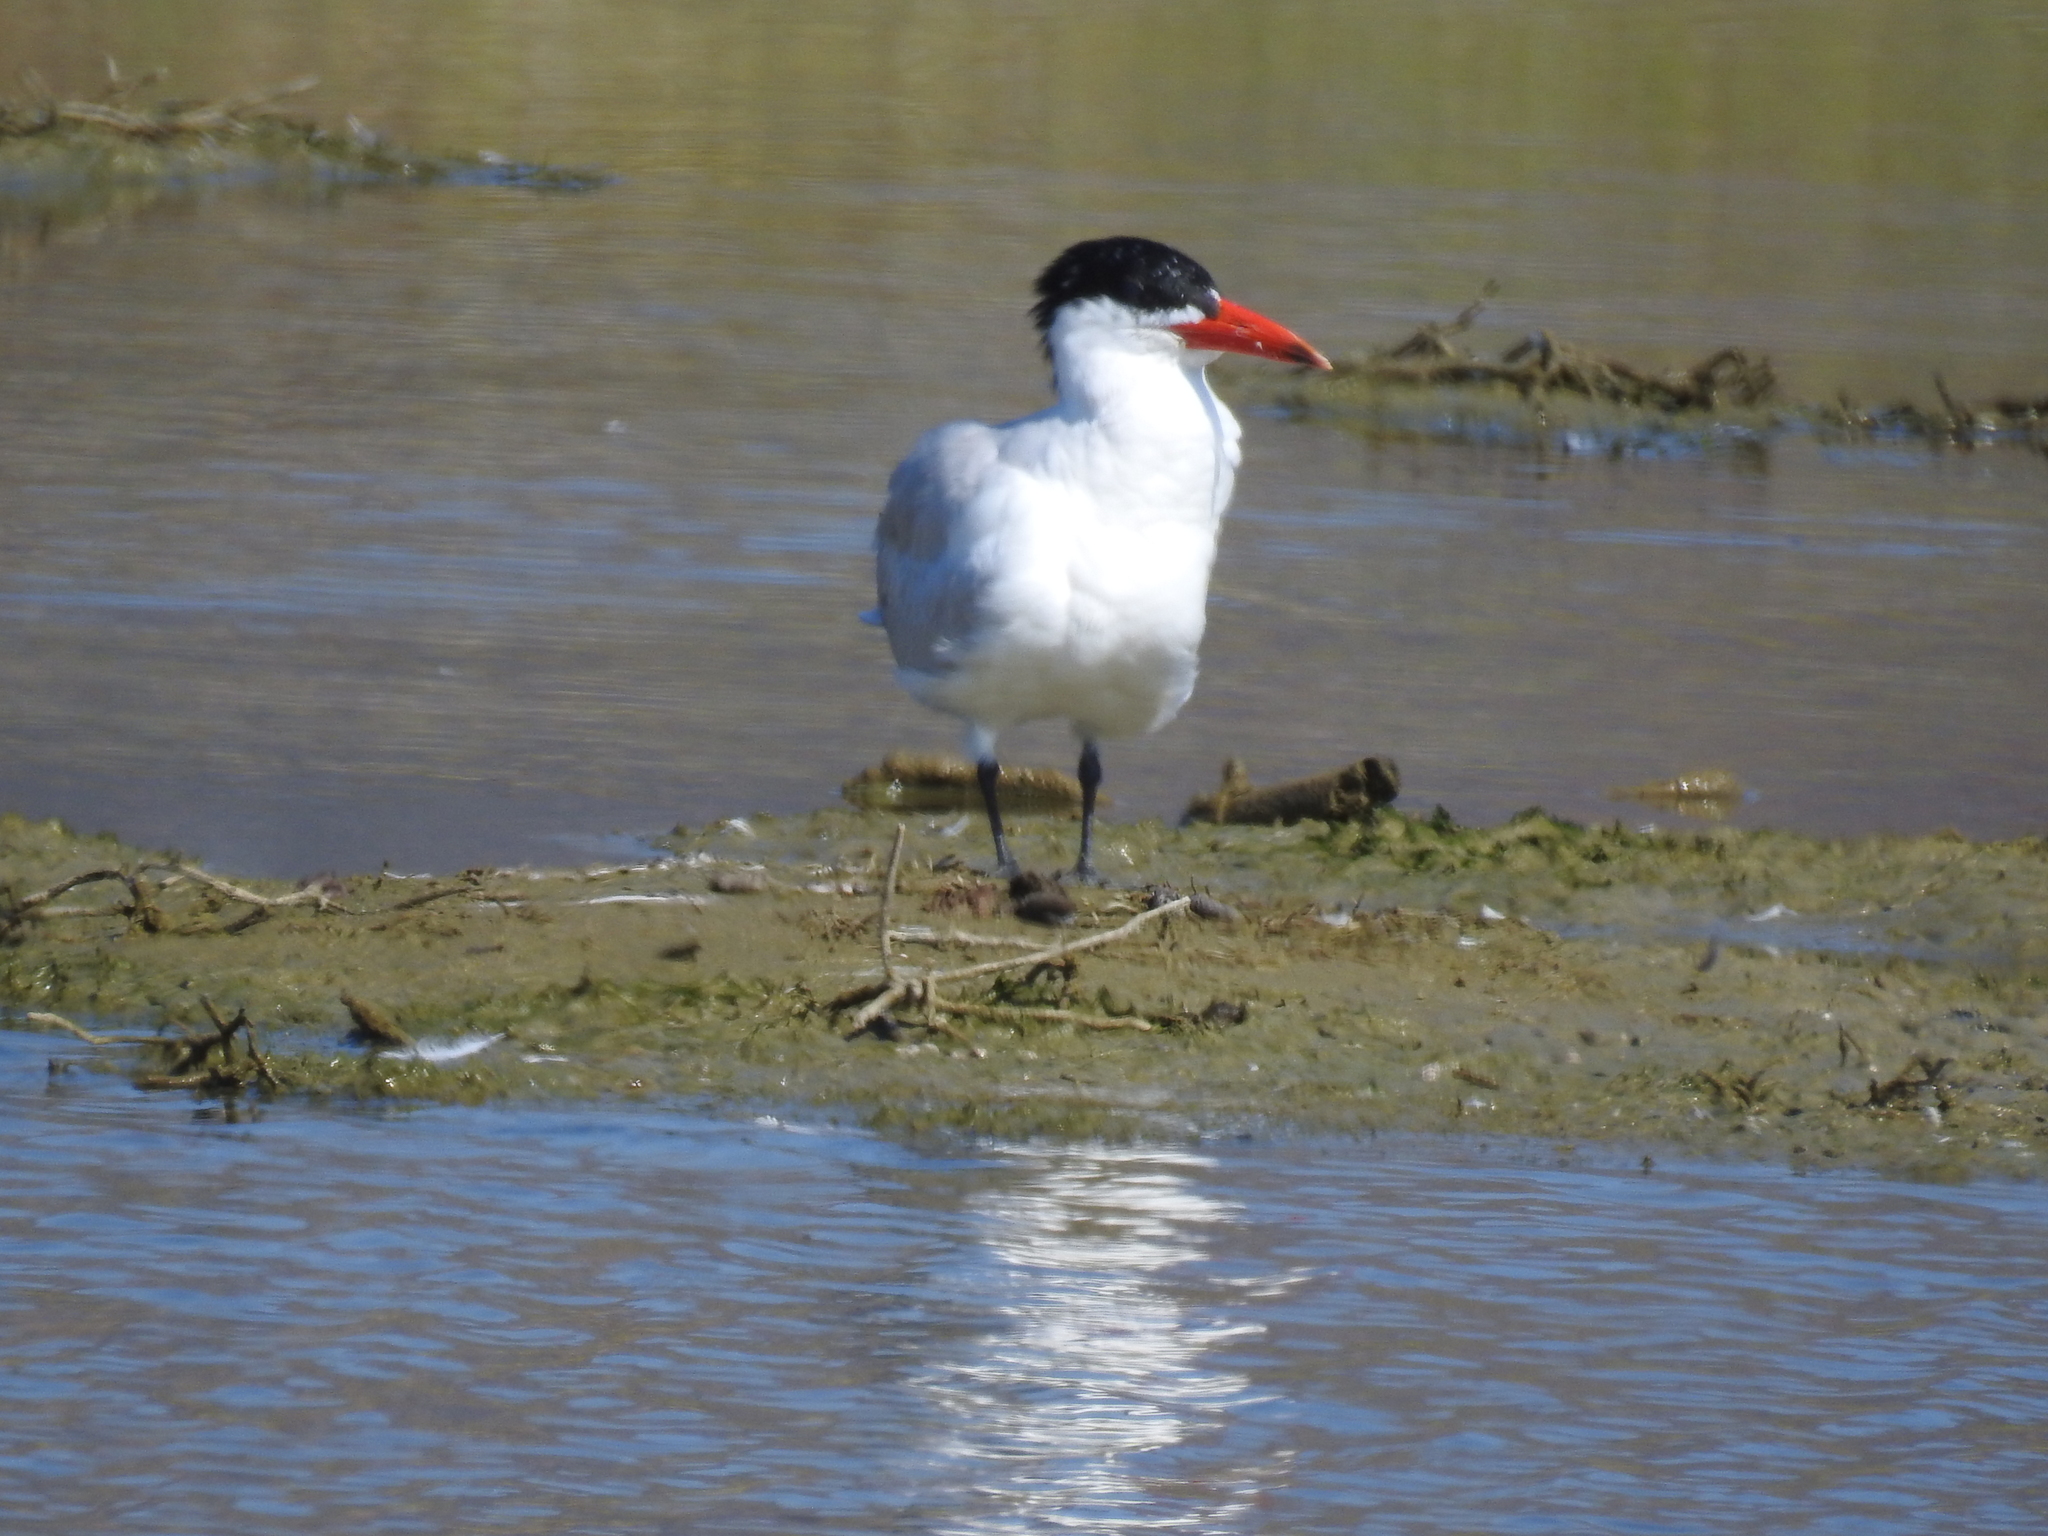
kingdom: Animalia
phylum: Chordata
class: Aves
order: Charadriiformes
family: Laridae
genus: Hydroprogne
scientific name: Hydroprogne caspia
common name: Caspian tern
